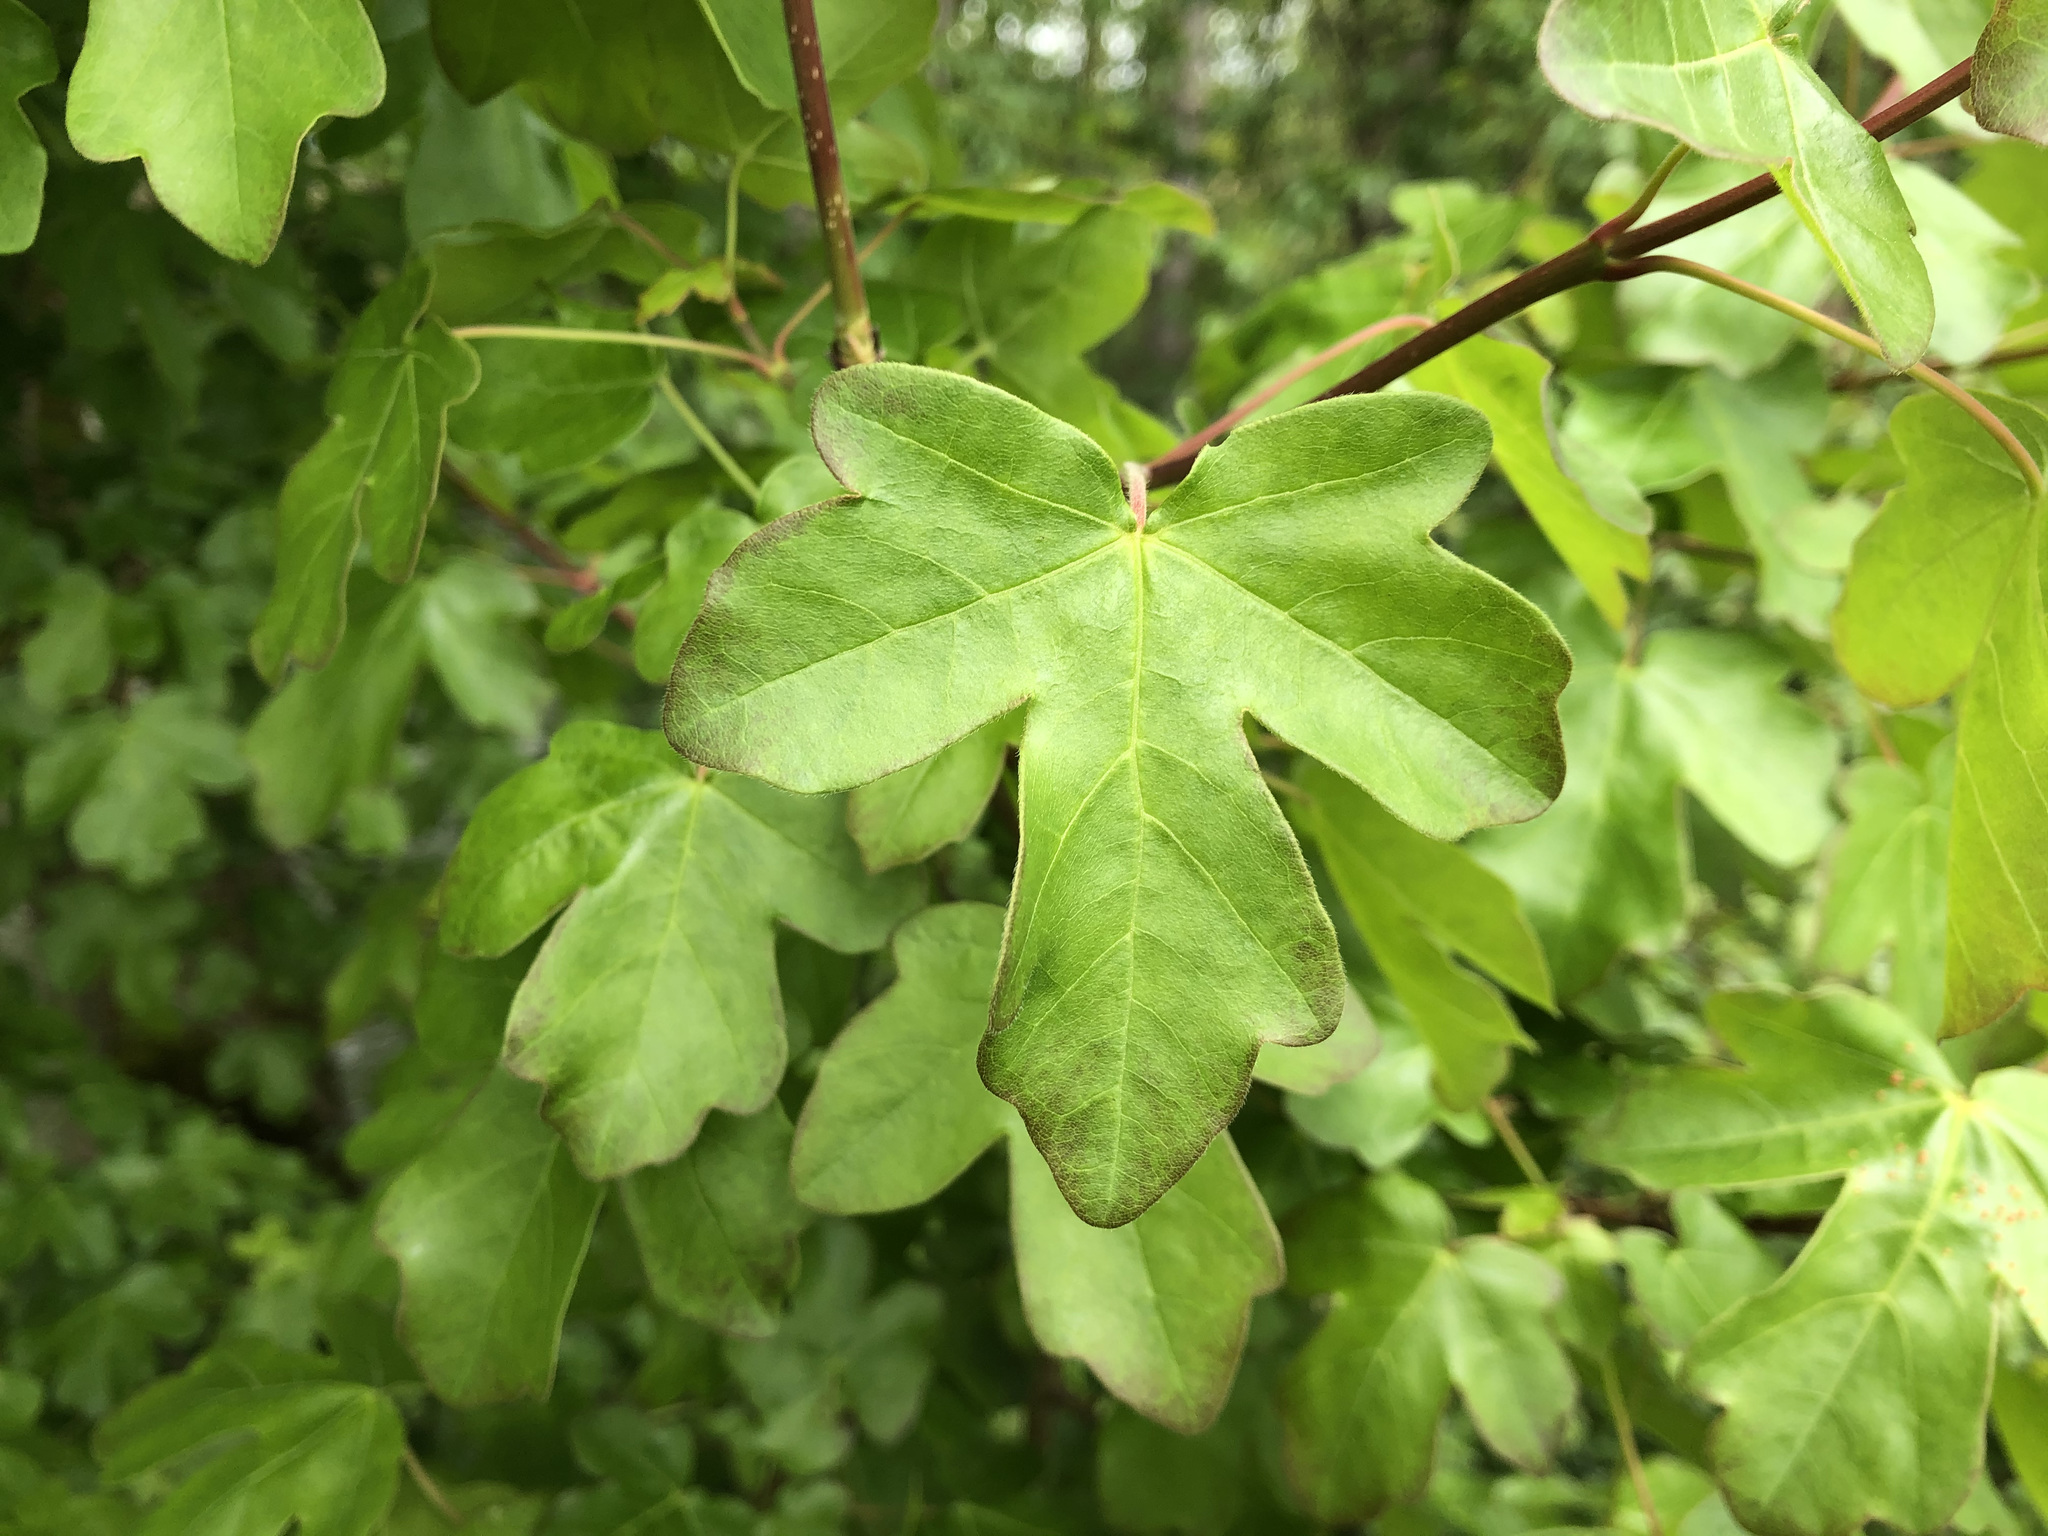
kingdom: Plantae
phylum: Tracheophyta
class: Magnoliopsida
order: Sapindales
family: Sapindaceae
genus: Acer
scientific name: Acer campestre
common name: Field maple
